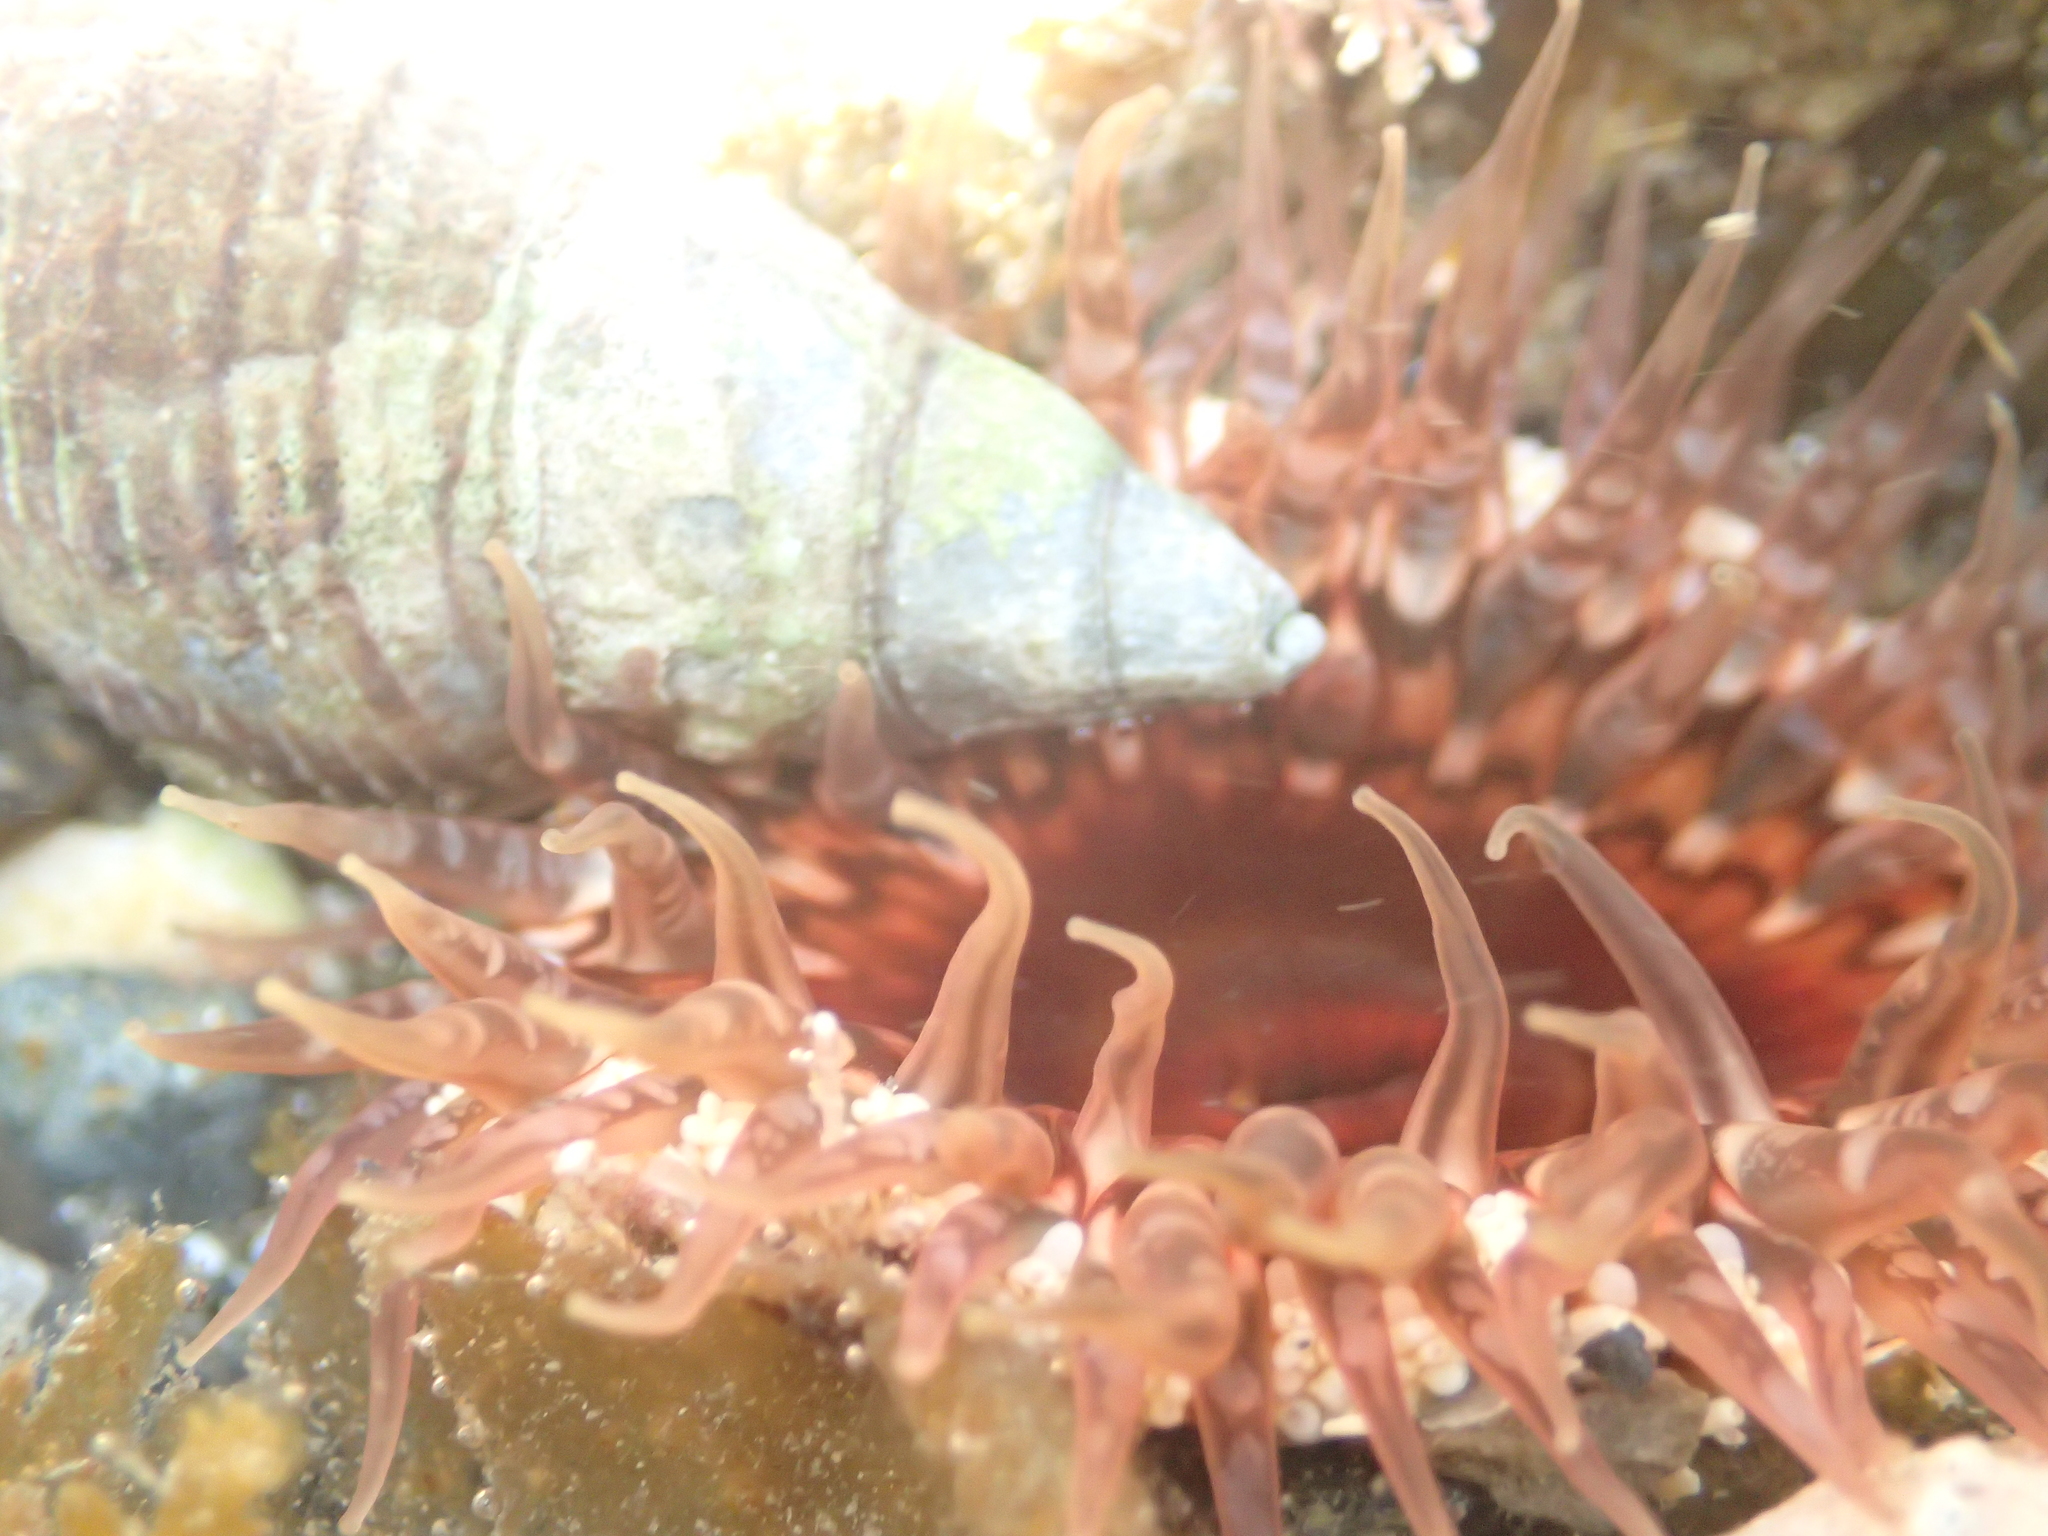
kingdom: Animalia
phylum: Cnidaria
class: Anthozoa
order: Actiniaria
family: Actiniidae
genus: Oulactis
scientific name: Oulactis muscosa
